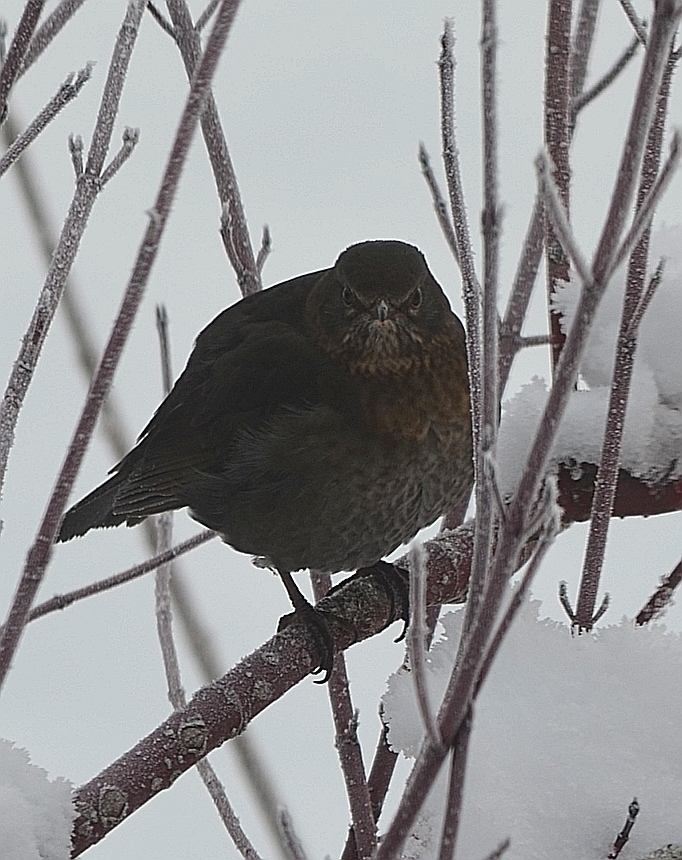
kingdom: Animalia
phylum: Chordata
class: Aves
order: Passeriformes
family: Turdidae
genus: Turdus
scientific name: Turdus merula
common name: Common blackbird
